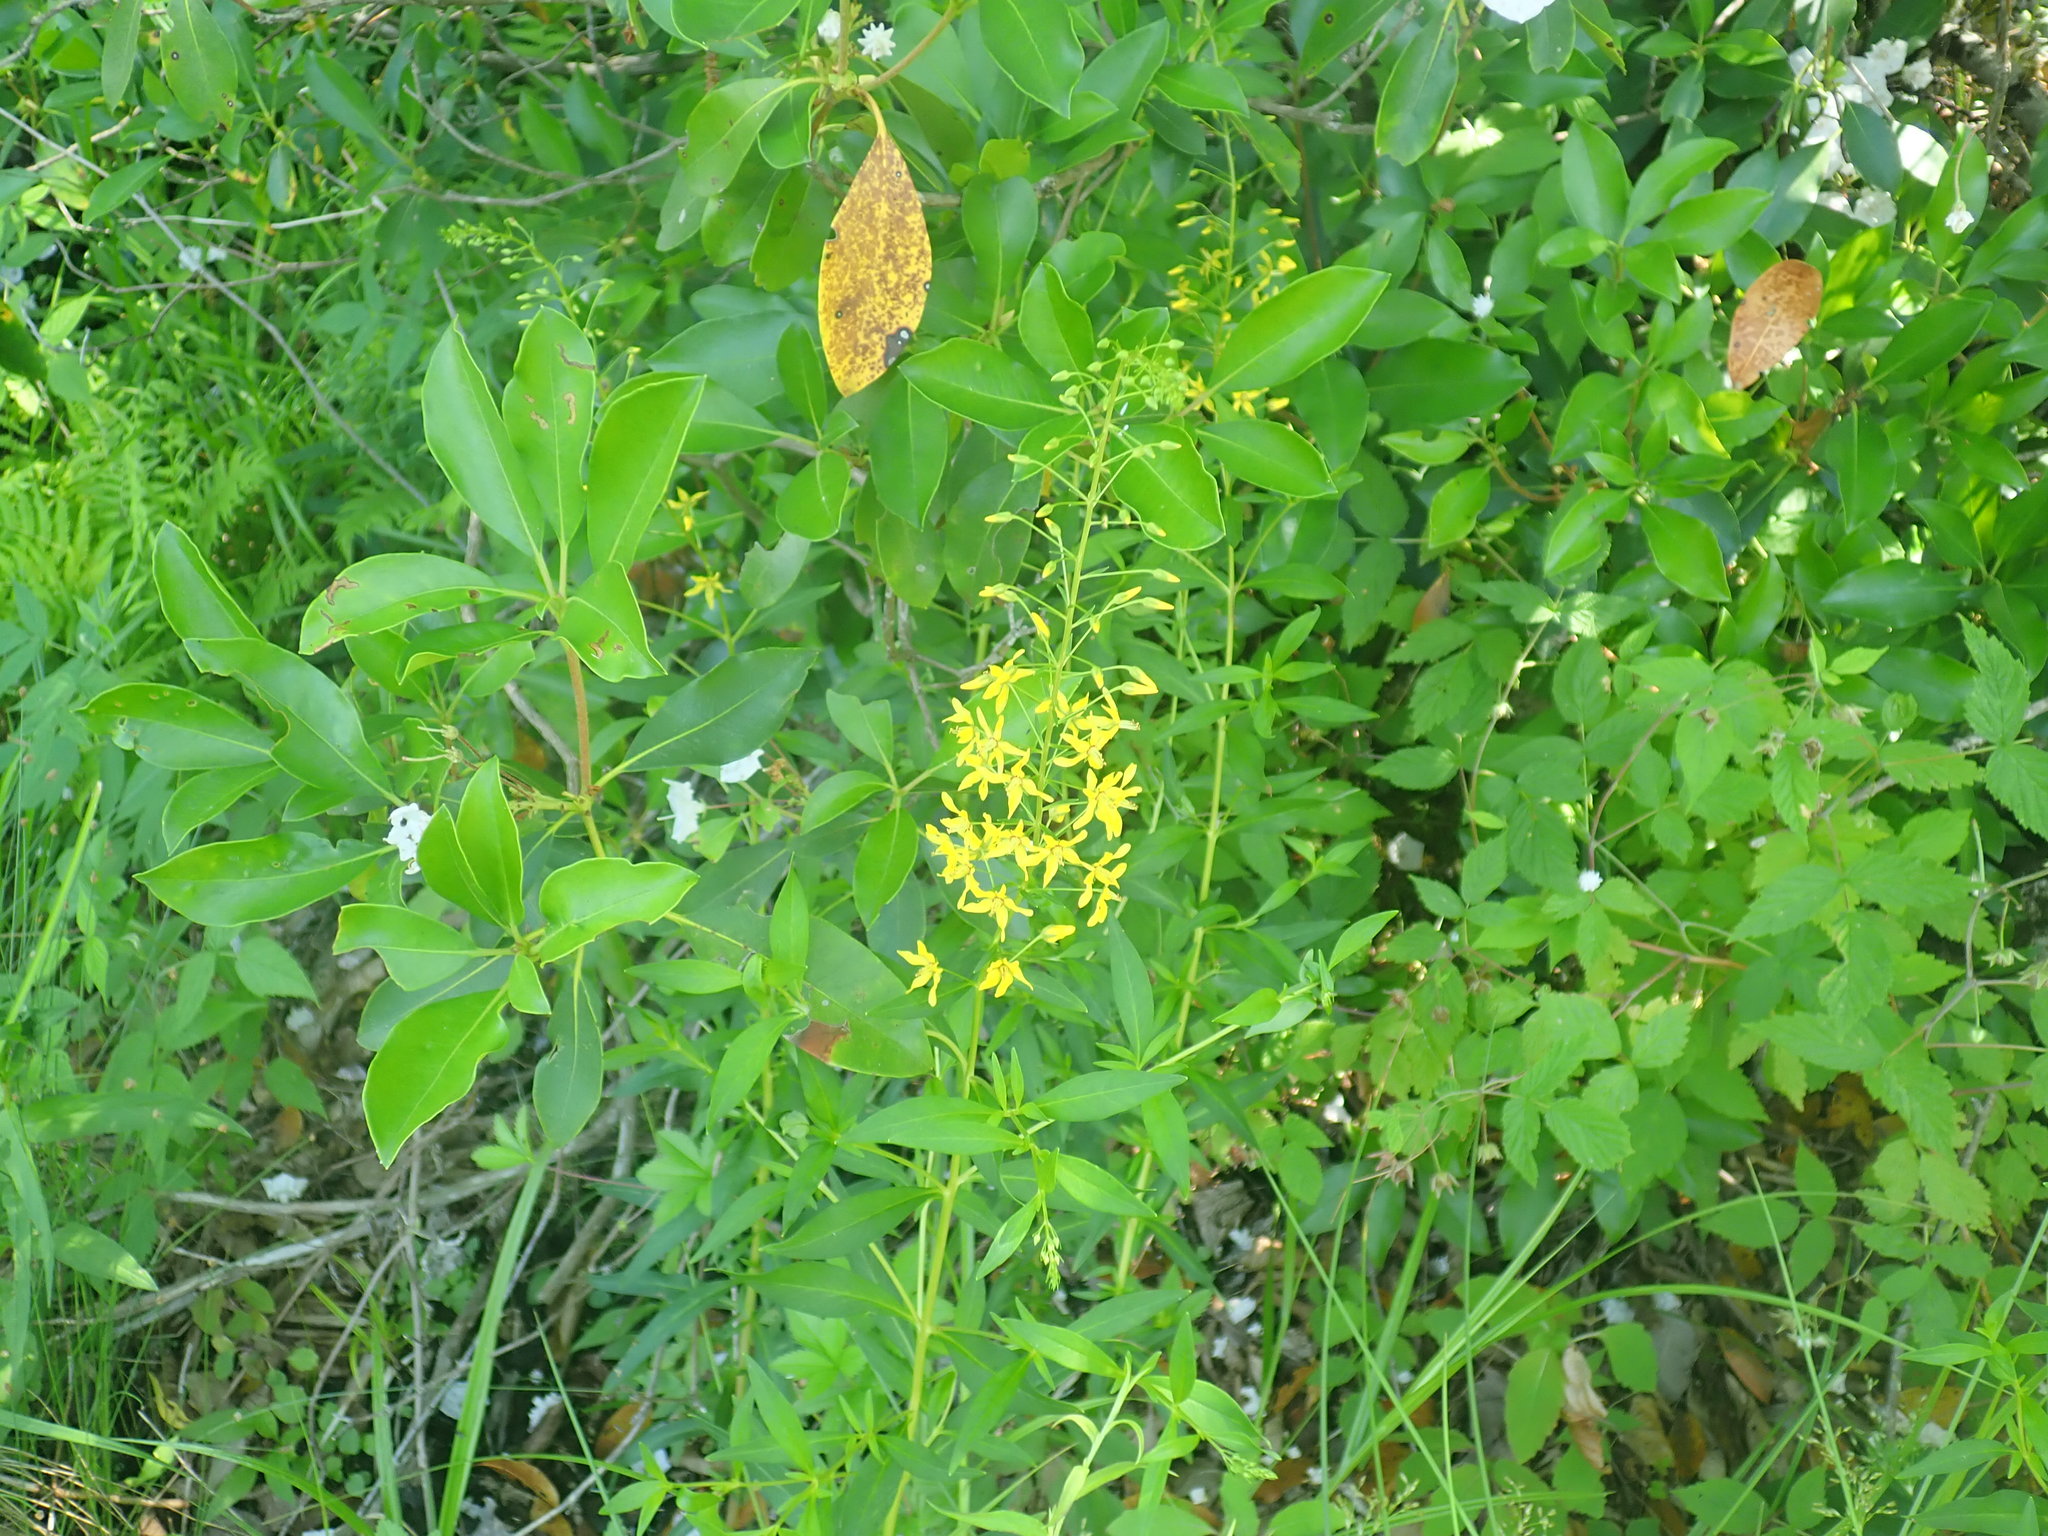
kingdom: Plantae
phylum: Tracheophyta
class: Magnoliopsida
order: Ericales
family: Primulaceae
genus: Lysimachia
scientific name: Lysimachia terrestris
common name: Lake loosestrife
